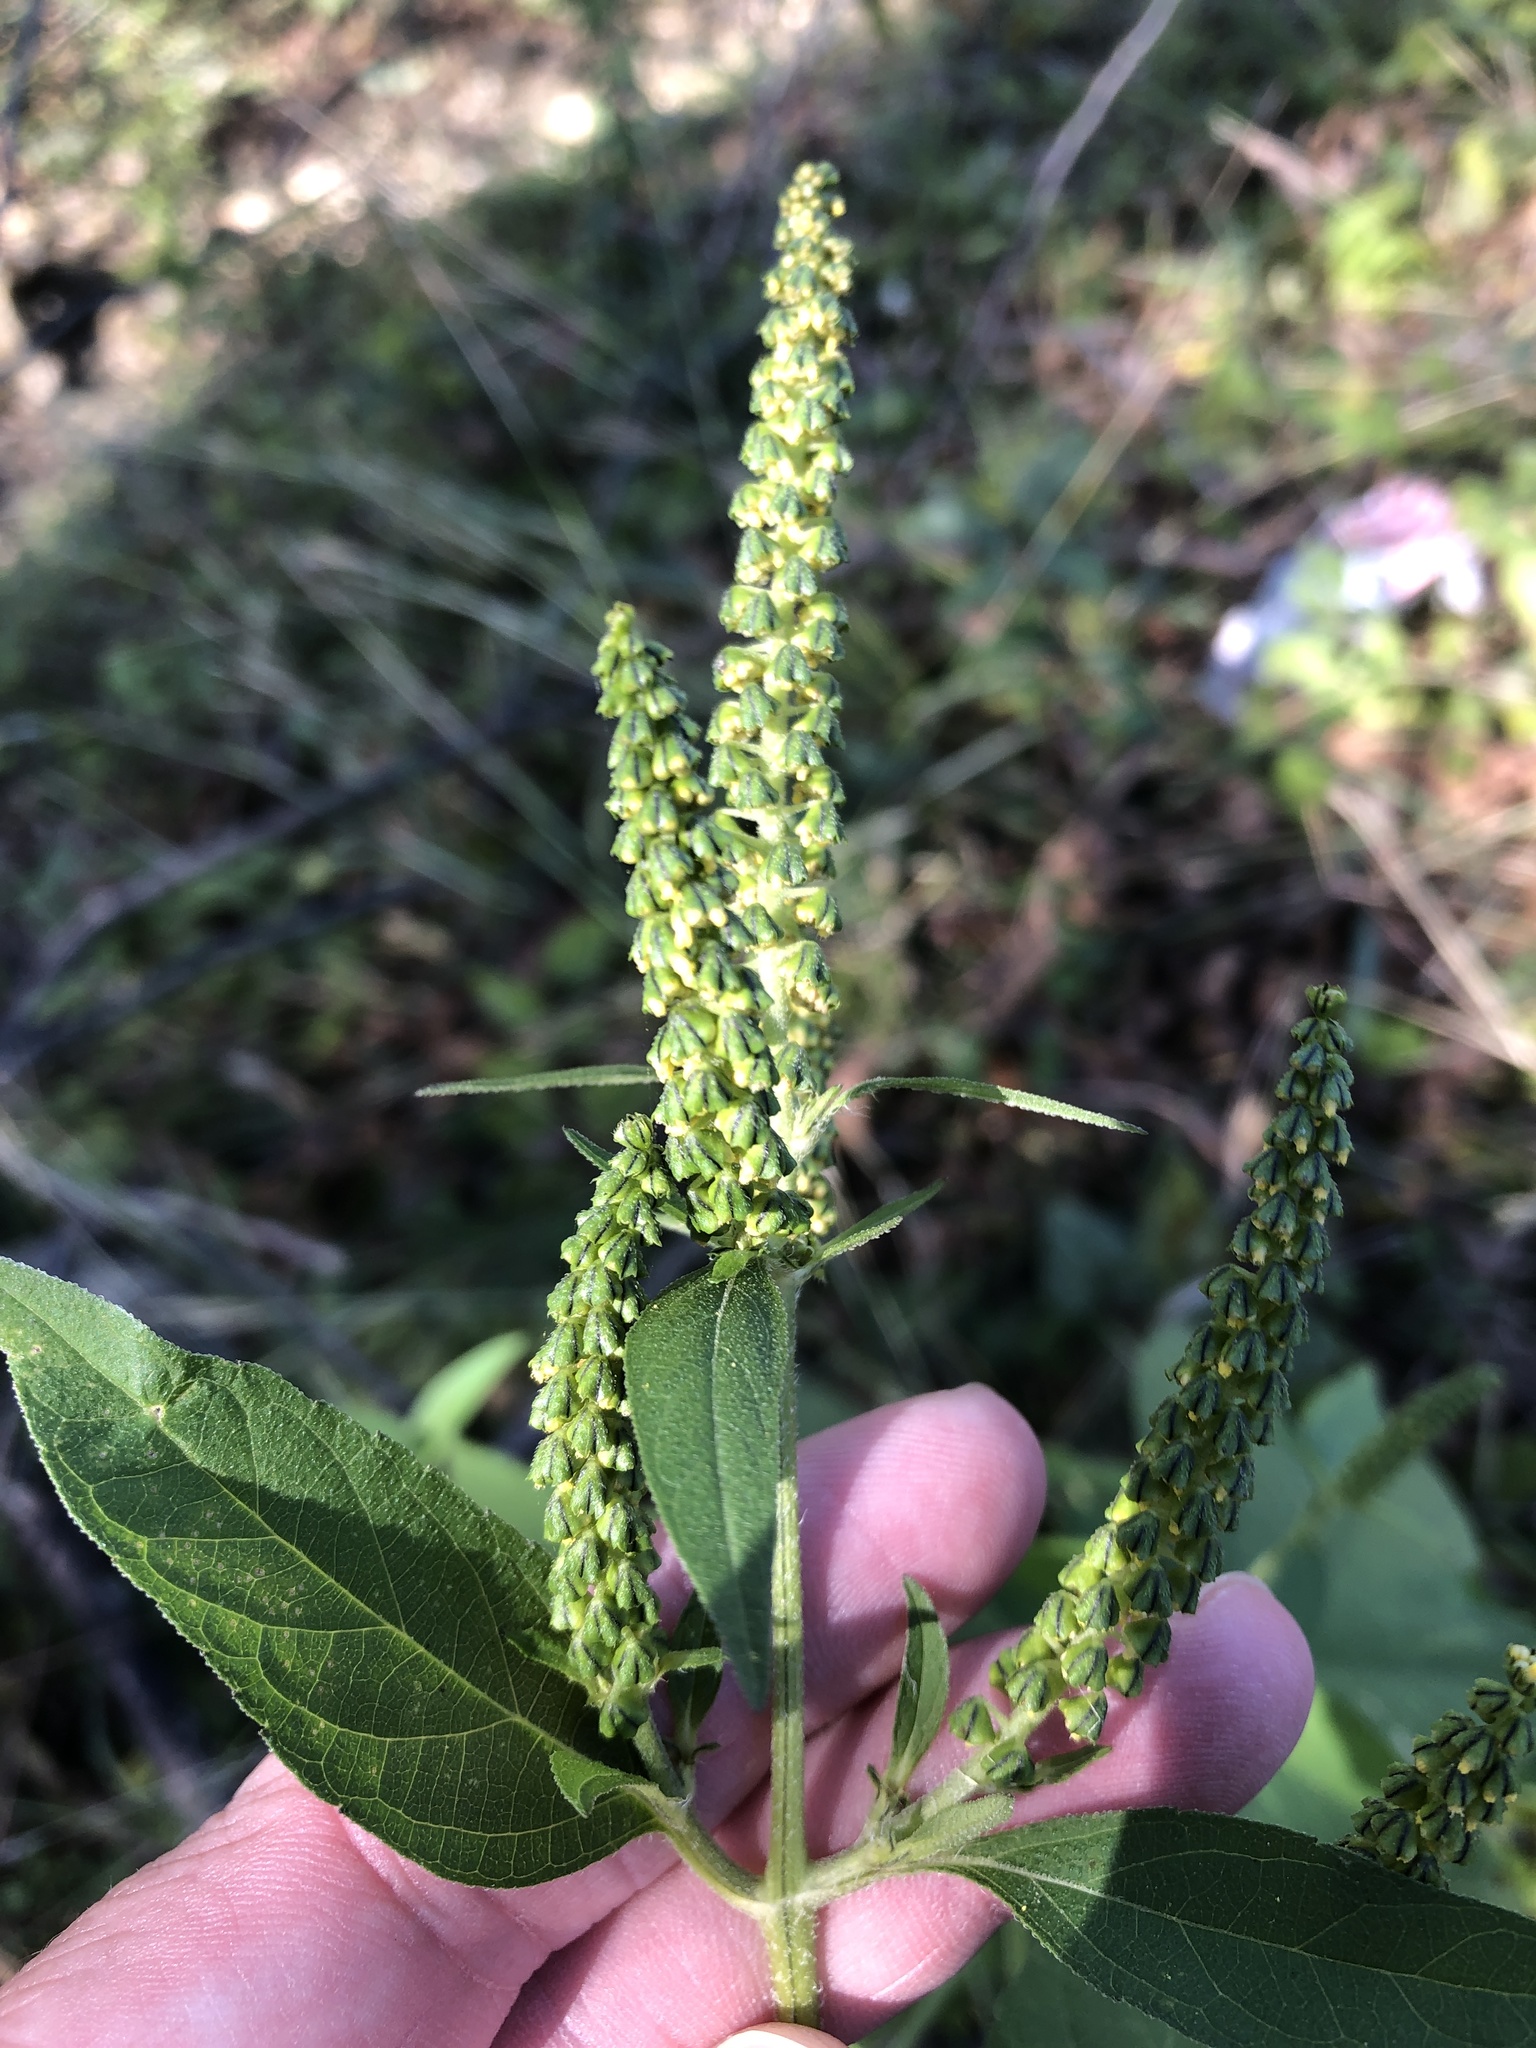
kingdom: Plantae
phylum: Tracheophyta
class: Magnoliopsida
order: Asterales
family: Asteraceae
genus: Ambrosia
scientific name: Ambrosia trifida
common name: Giant ragweed
